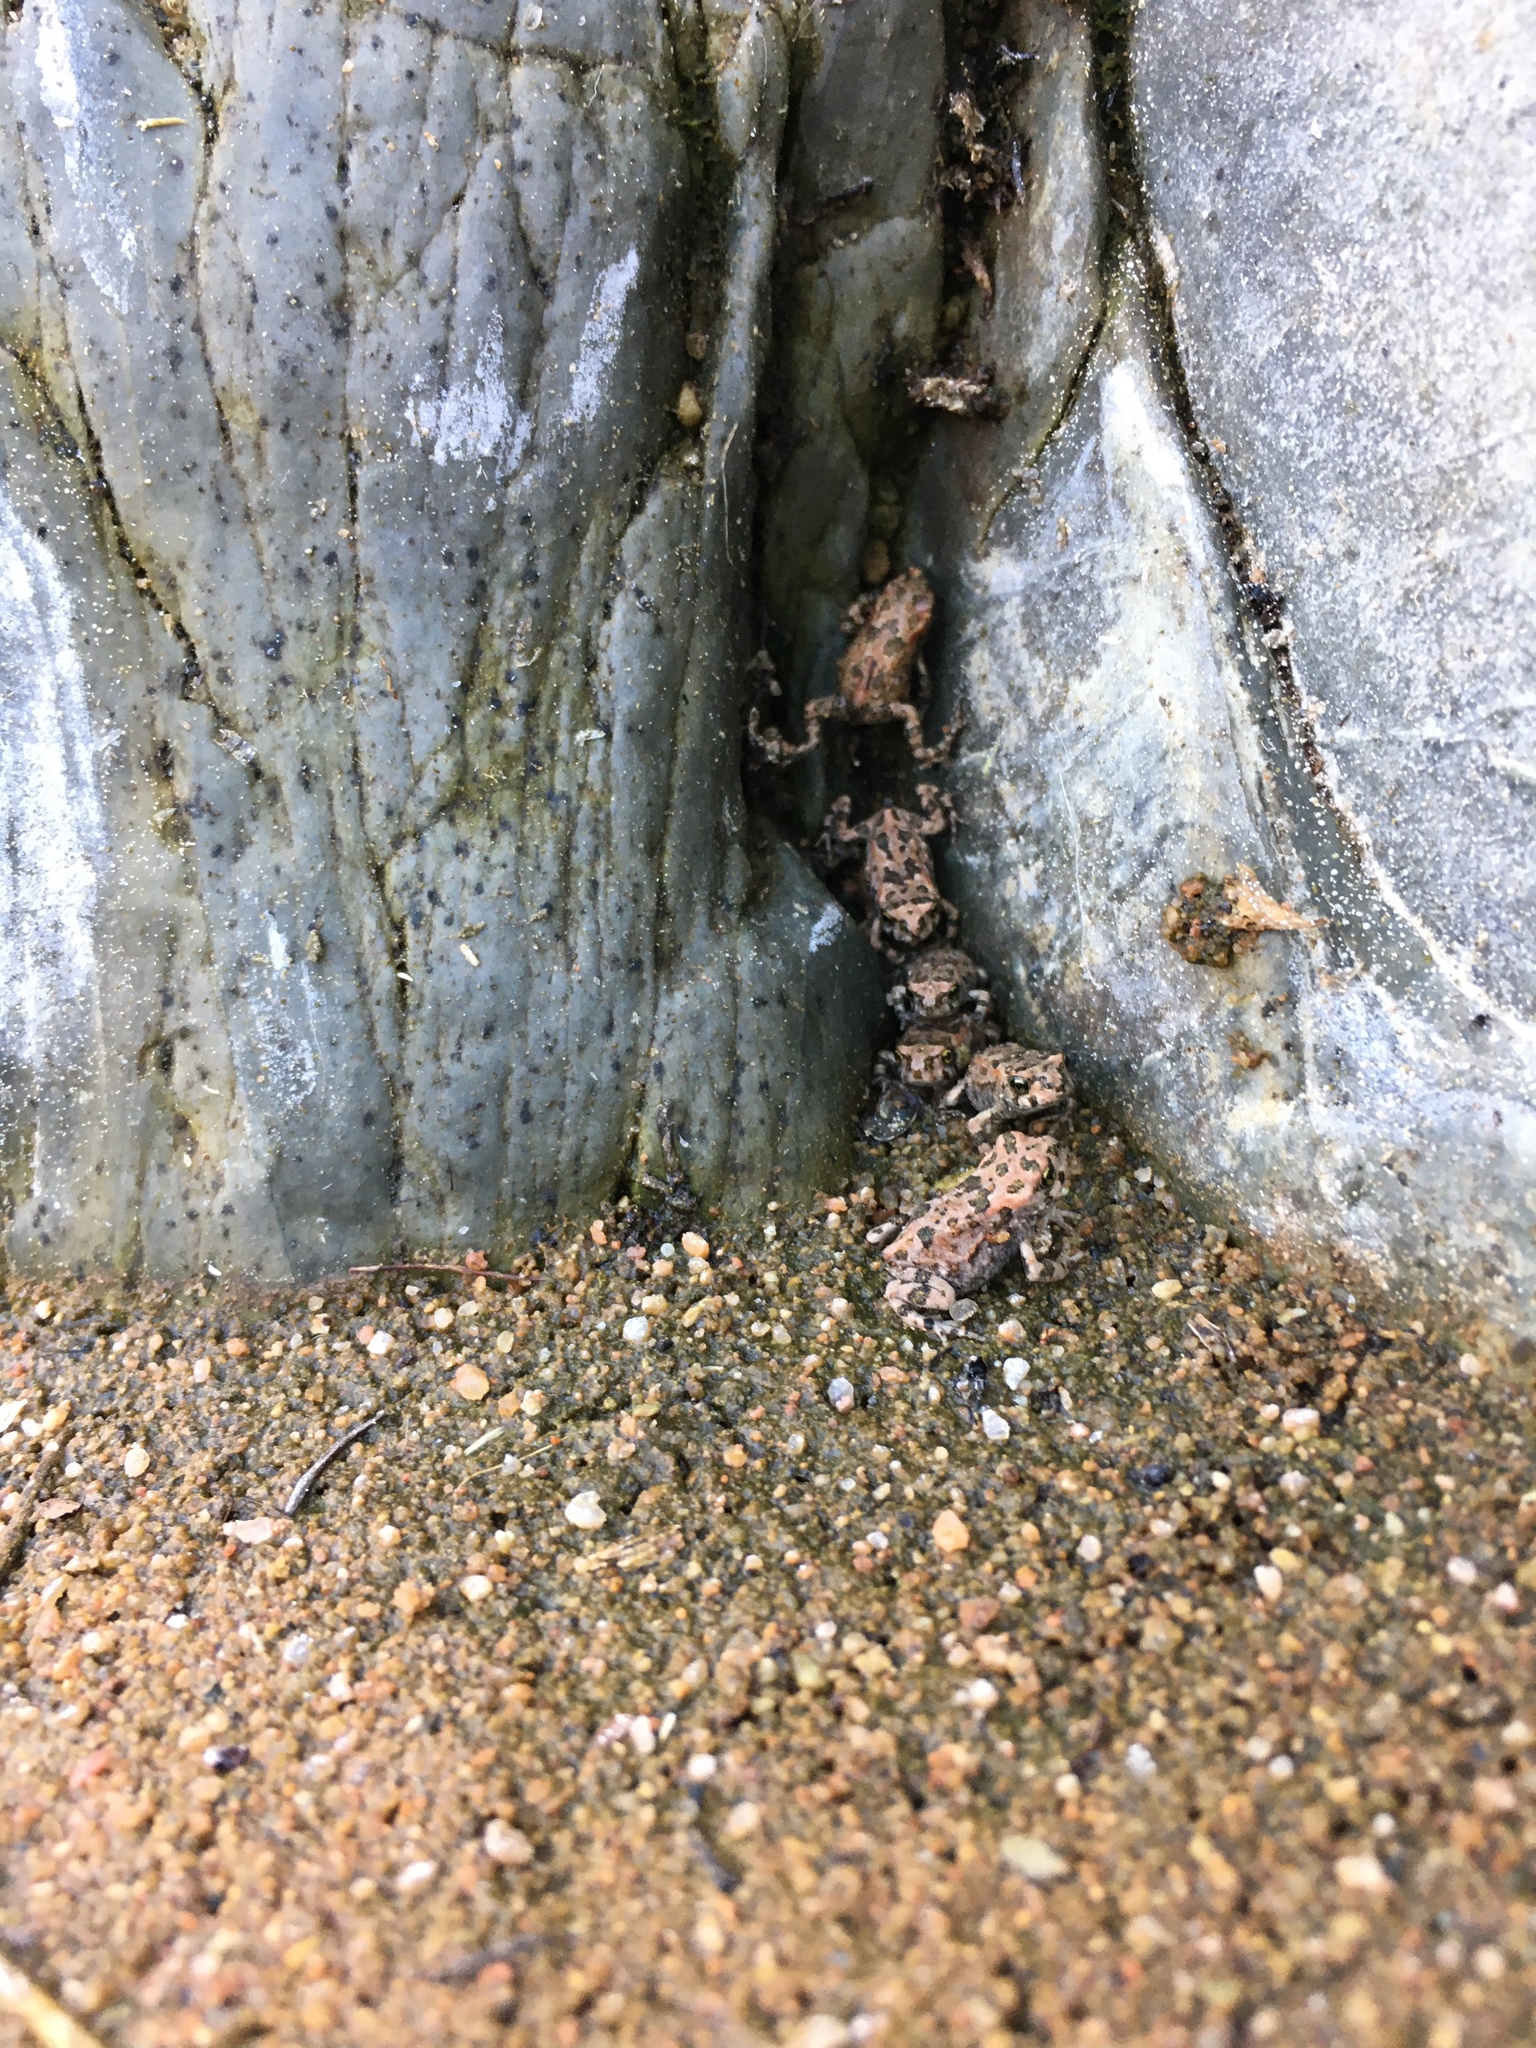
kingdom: Animalia
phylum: Chordata
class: Amphibia
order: Anura
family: Bufonidae
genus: Vandijkophrynus
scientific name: Vandijkophrynus robinsoni
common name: Paradise toad
